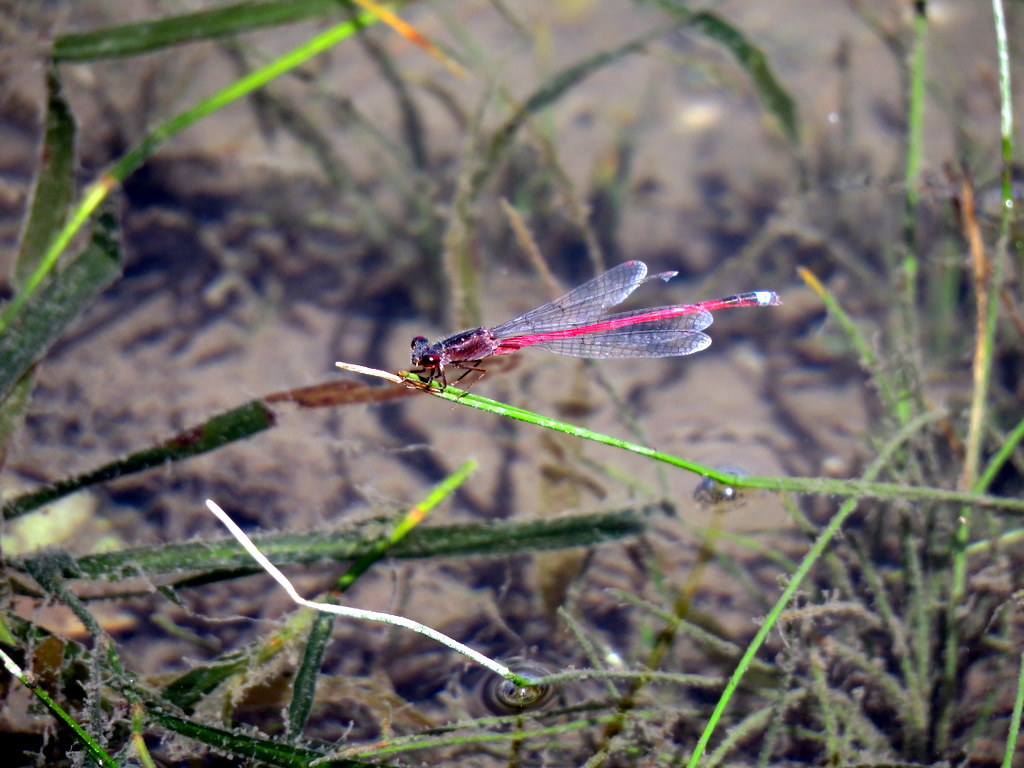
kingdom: Animalia
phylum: Arthropoda
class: Insecta
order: Odonata
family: Coenagrionidae
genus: Oxyagrion
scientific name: Oxyagrion rubidum
